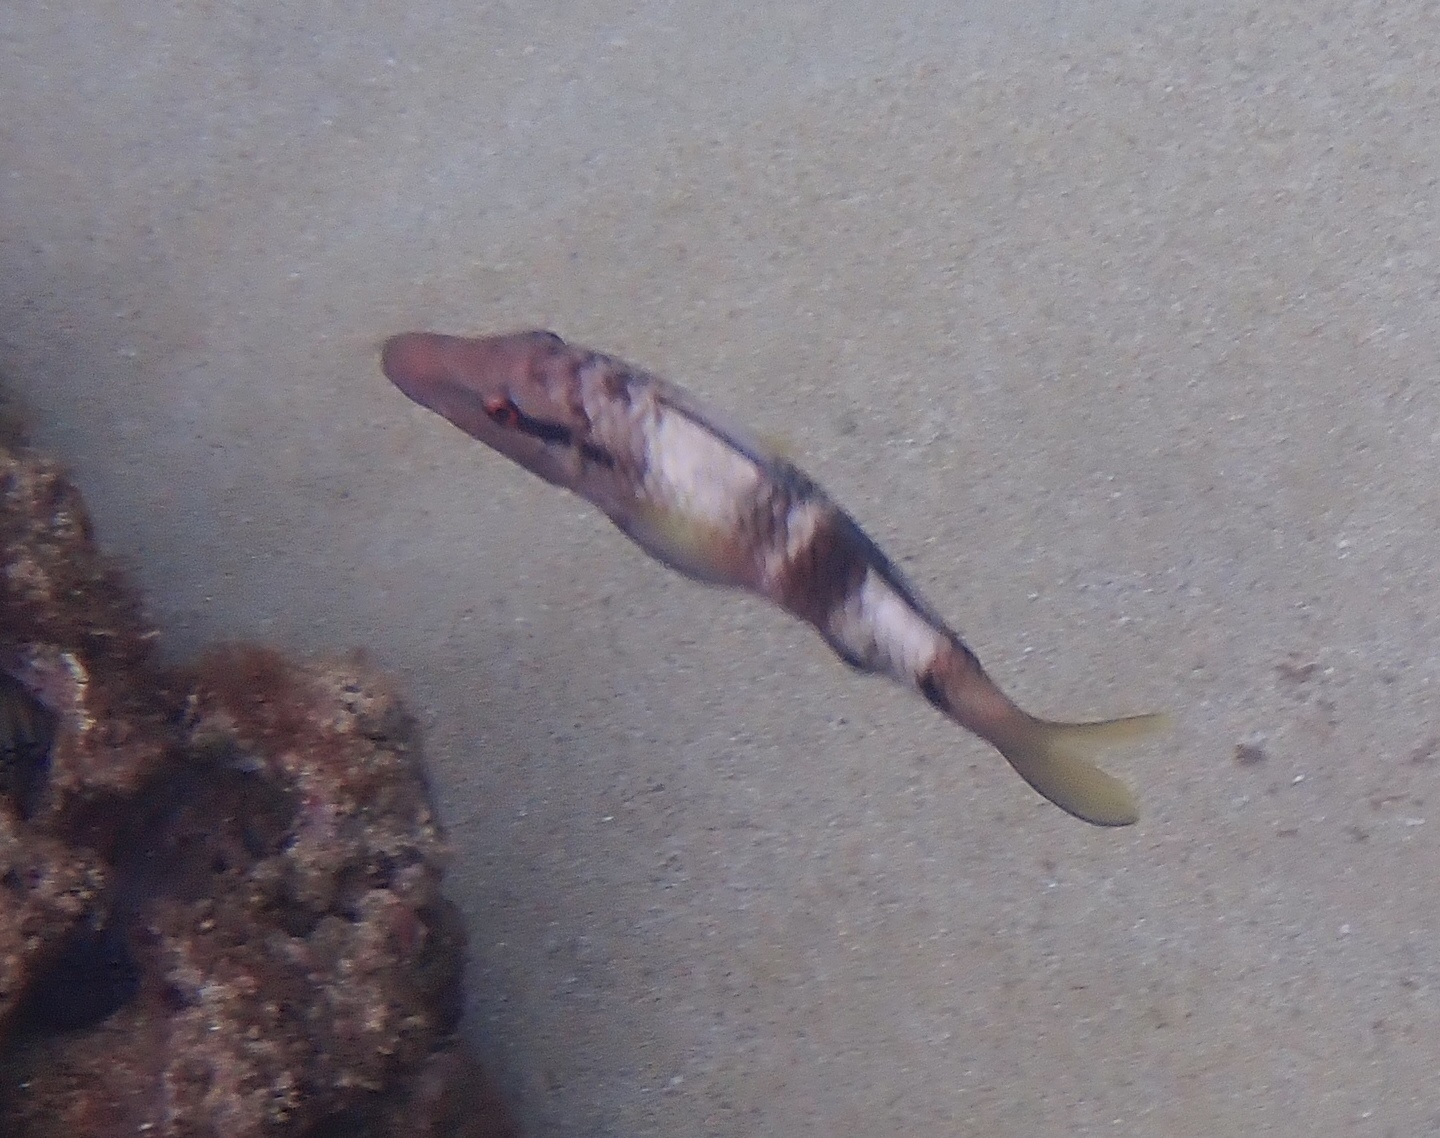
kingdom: Animalia
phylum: Chordata
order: Perciformes
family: Mullidae
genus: Parupeneus
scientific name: Parupeneus multifasciatus
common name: Manybar goatfish
